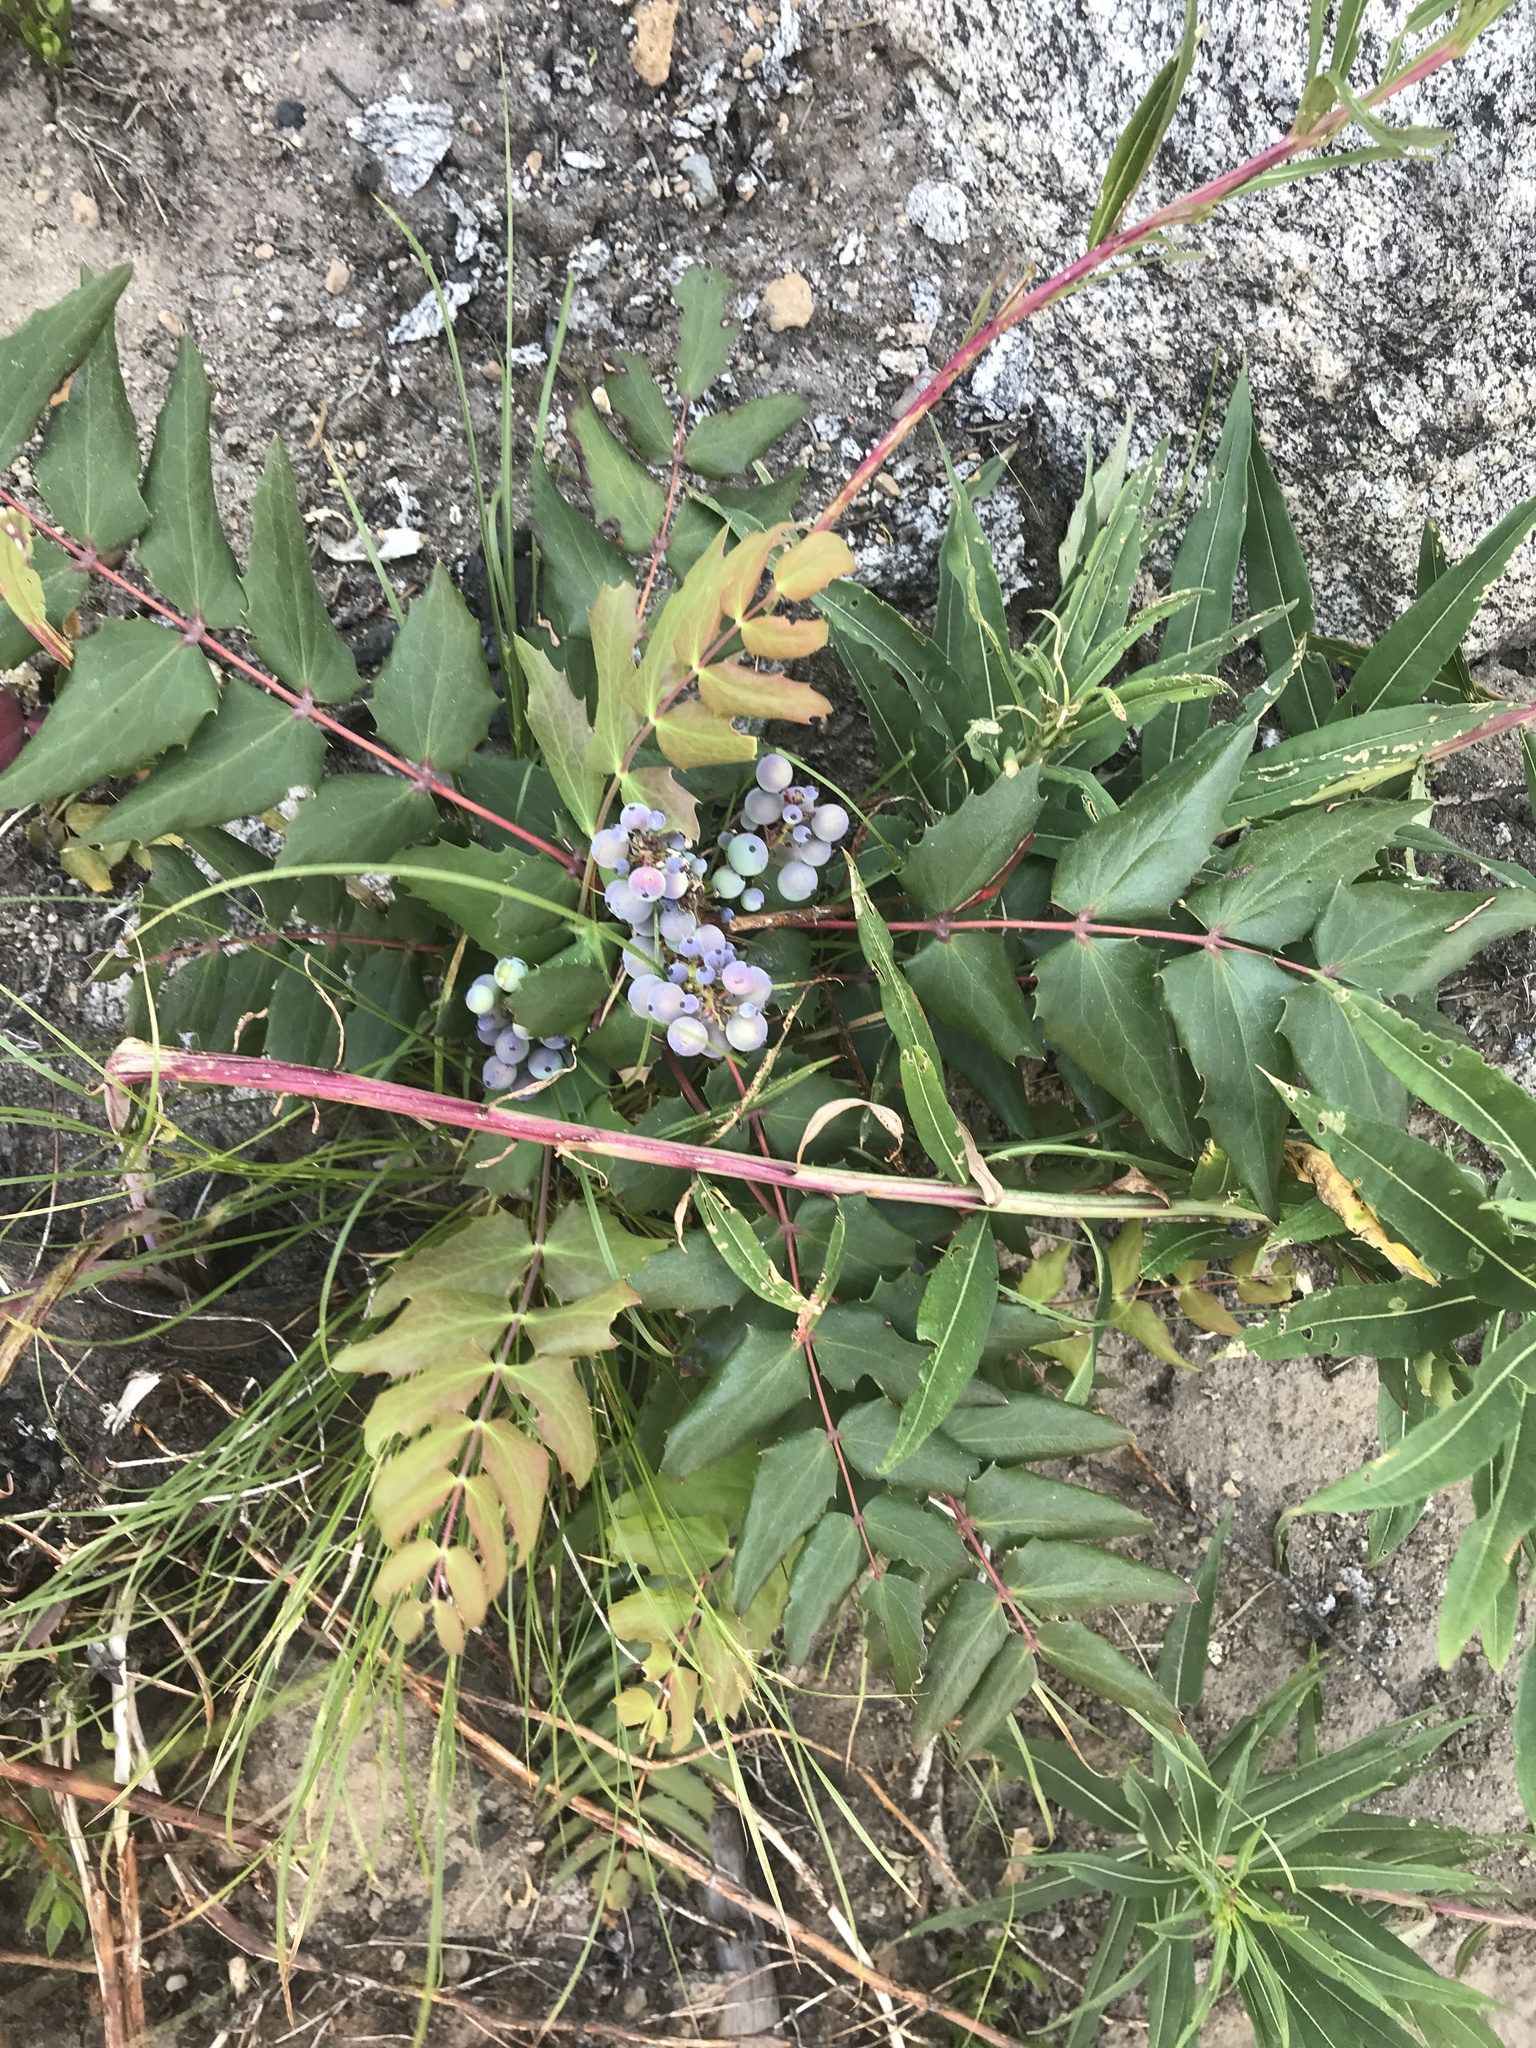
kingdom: Plantae
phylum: Tracheophyta
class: Magnoliopsida
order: Ranunculales
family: Berberidaceae
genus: Mahonia
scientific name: Mahonia nervosa
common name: Cascade oregon-grape
